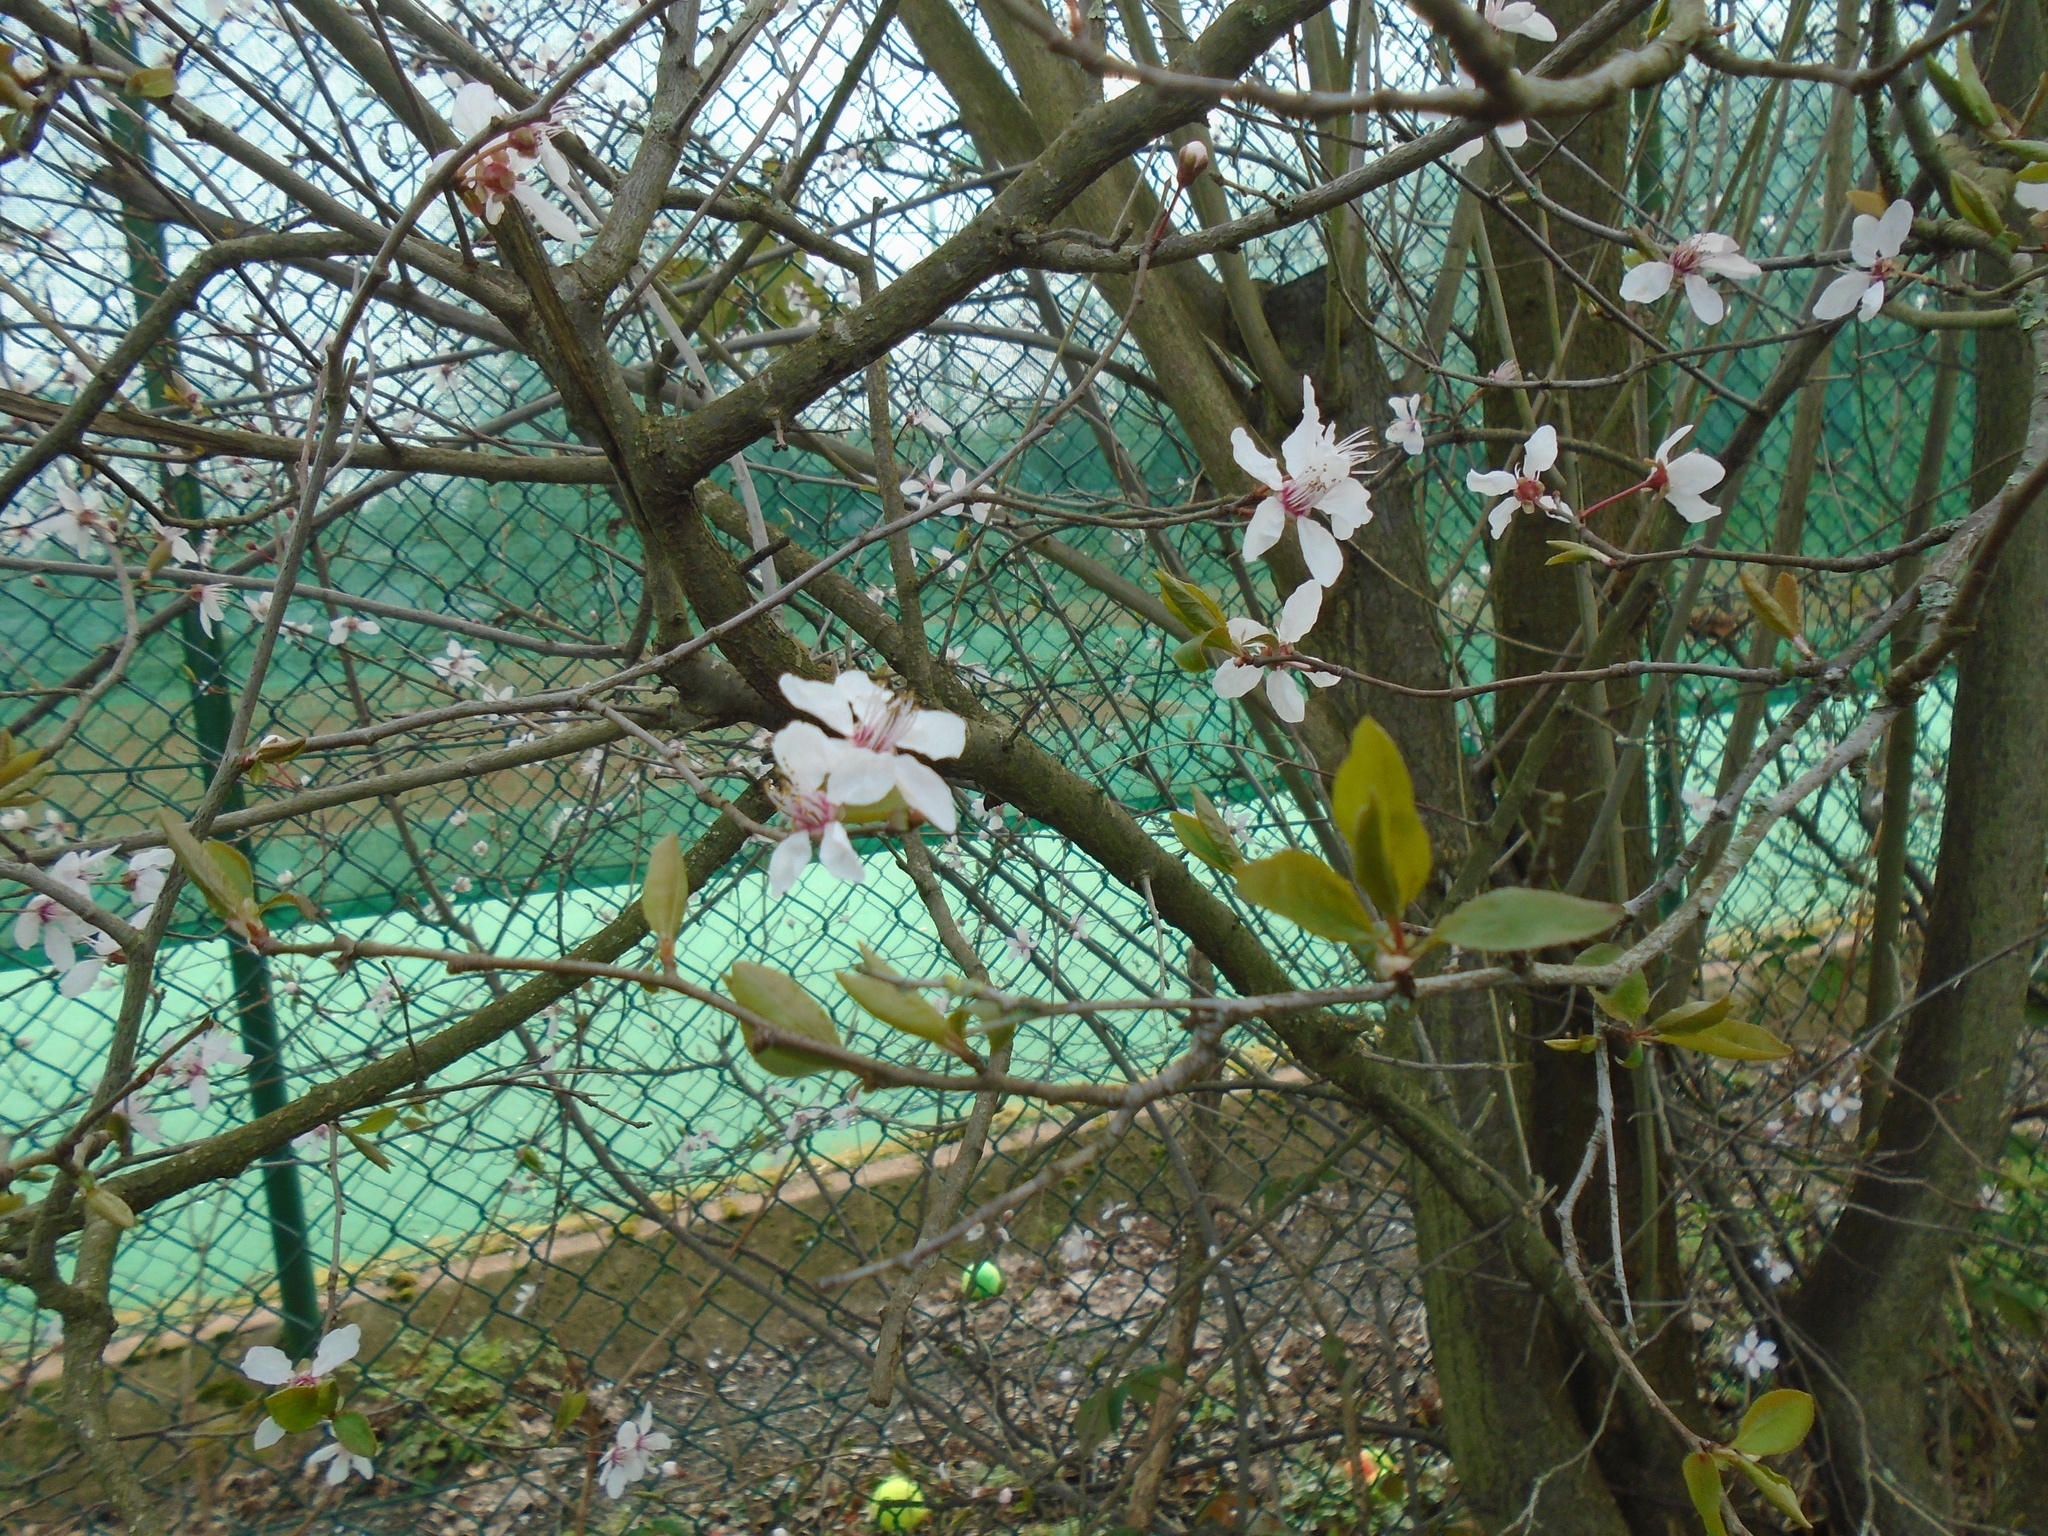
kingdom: Plantae
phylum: Tracheophyta
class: Magnoliopsida
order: Rosales
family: Rosaceae
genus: Prunus
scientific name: Prunus cerasifera
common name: Cherry plum
